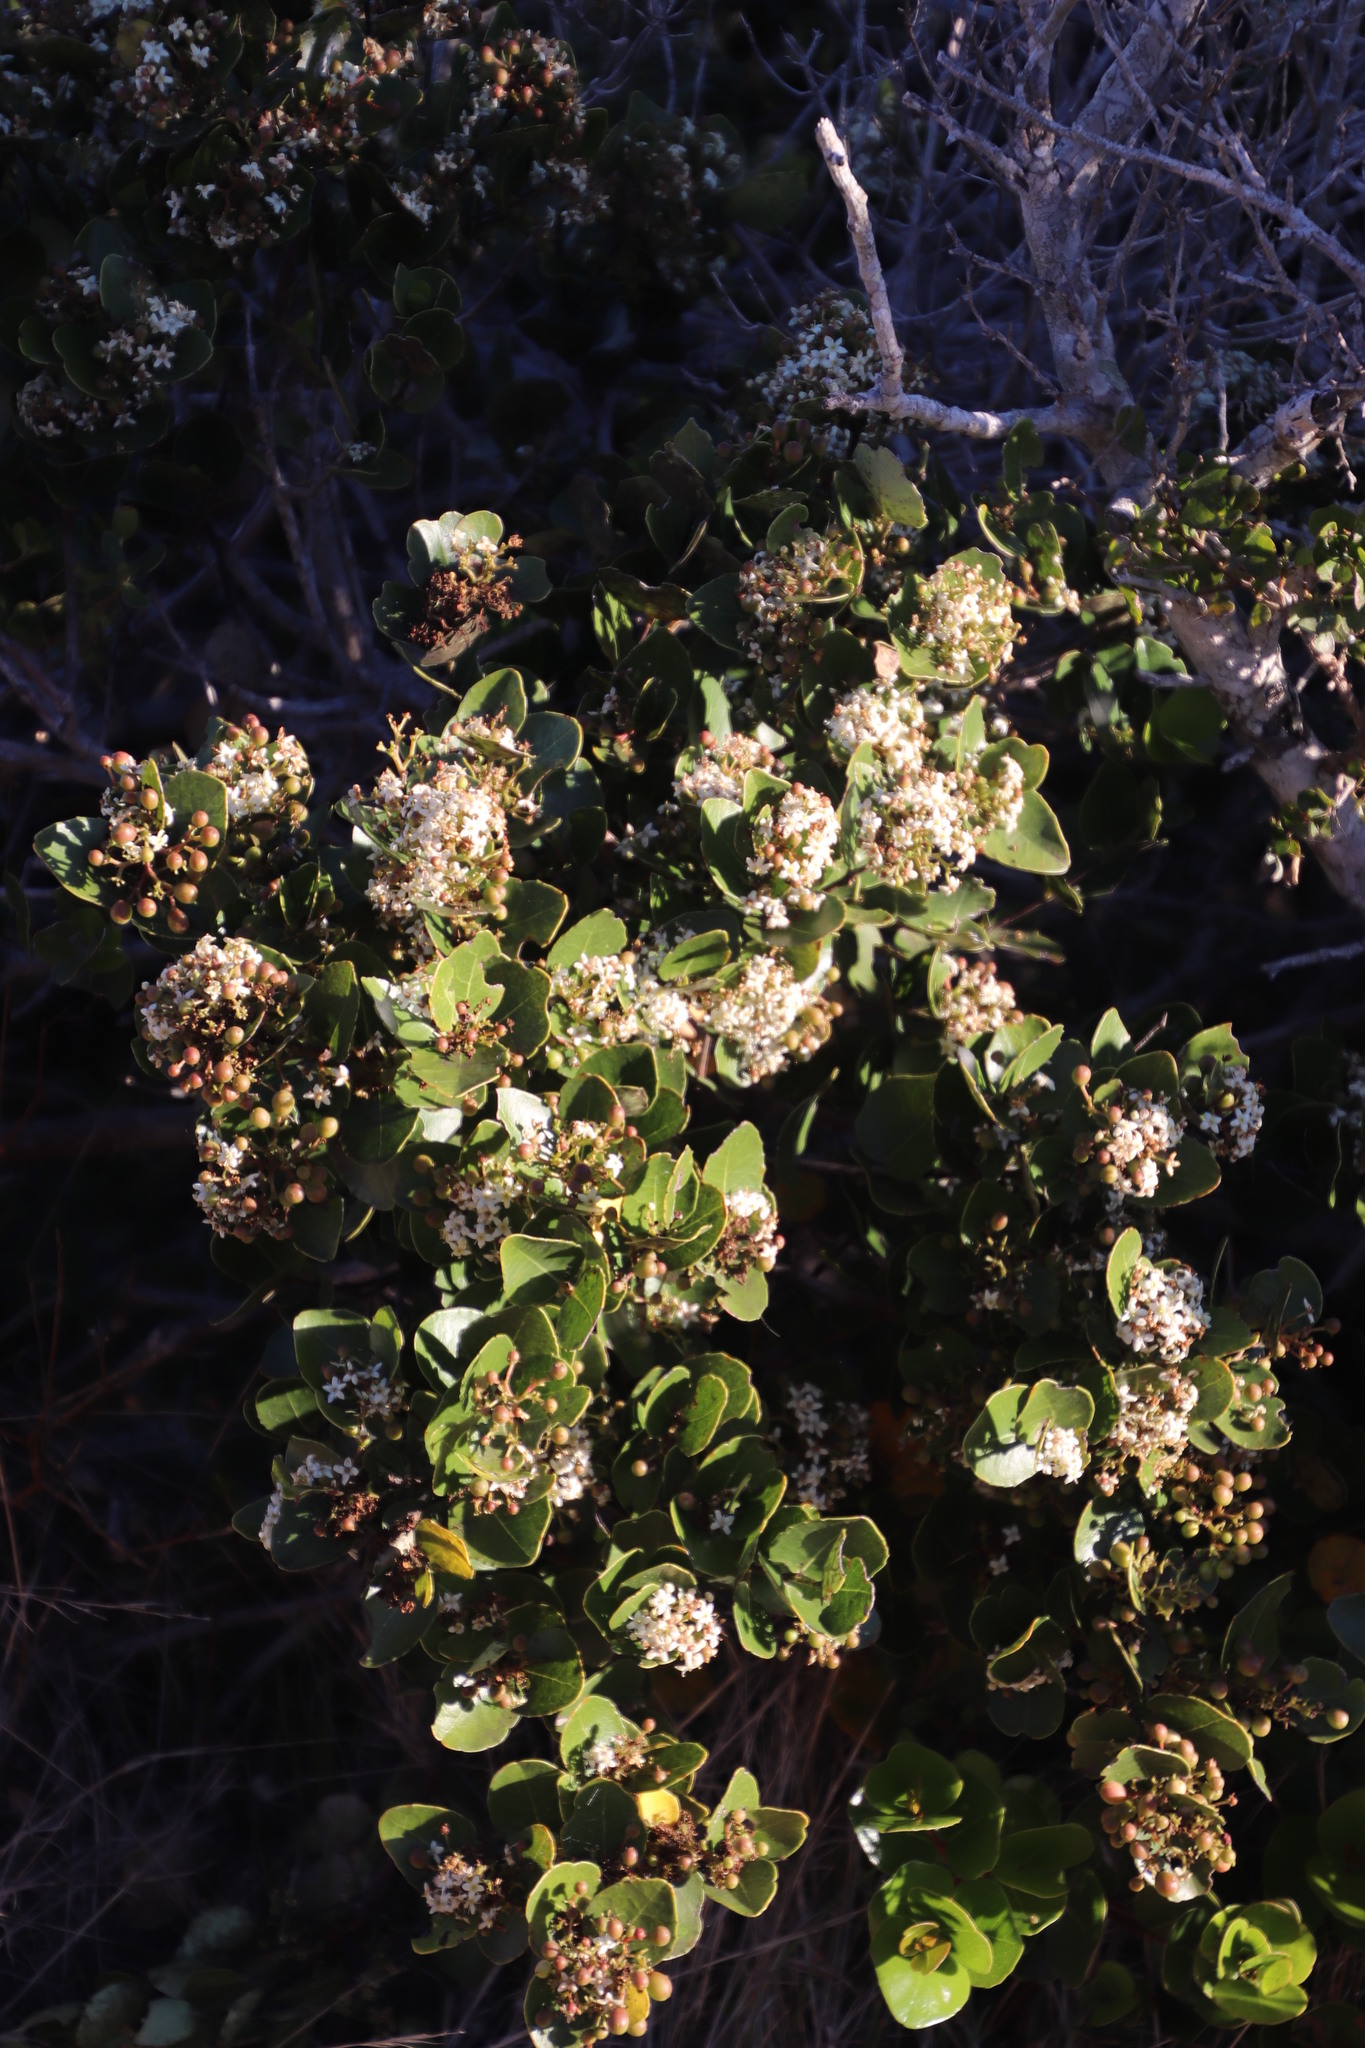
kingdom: Plantae
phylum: Tracheophyta
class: Magnoliopsida
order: Celastrales
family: Celastraceae
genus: Cassine
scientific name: Cassine peragua
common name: Cape saffron
